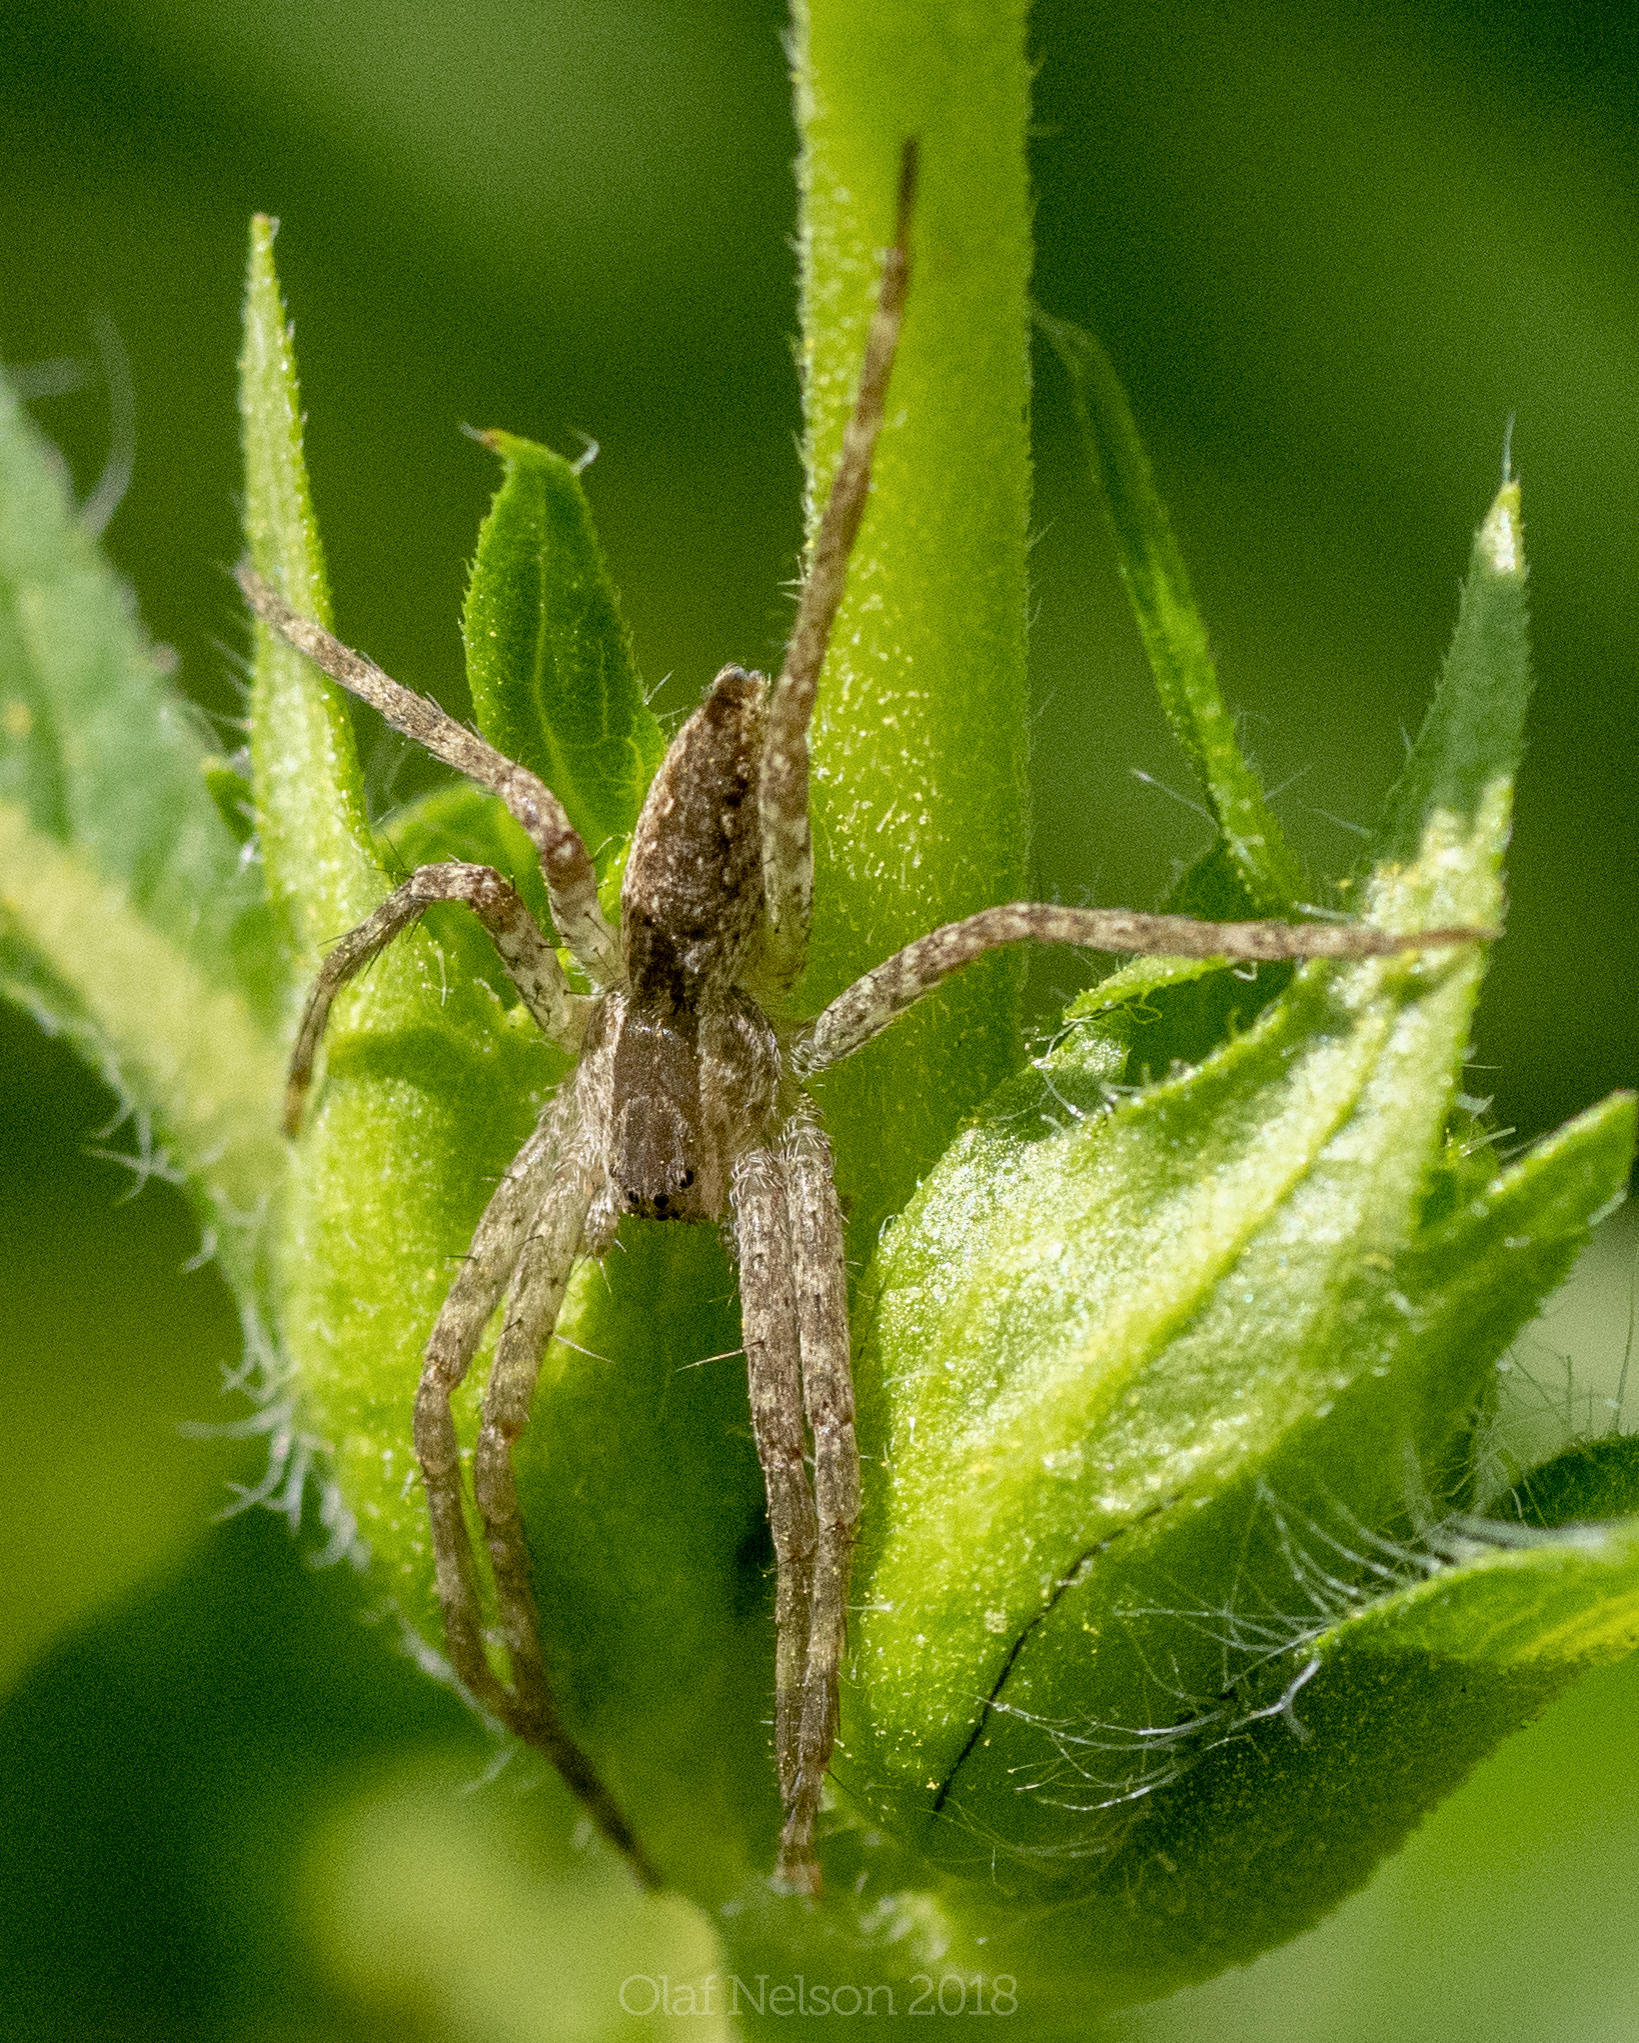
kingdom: Animalia
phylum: Arthropoda
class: Arachnida
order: Araneae
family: Pisauridae
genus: Pisaurina
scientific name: Pisaurina mira
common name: American nursery web spider
